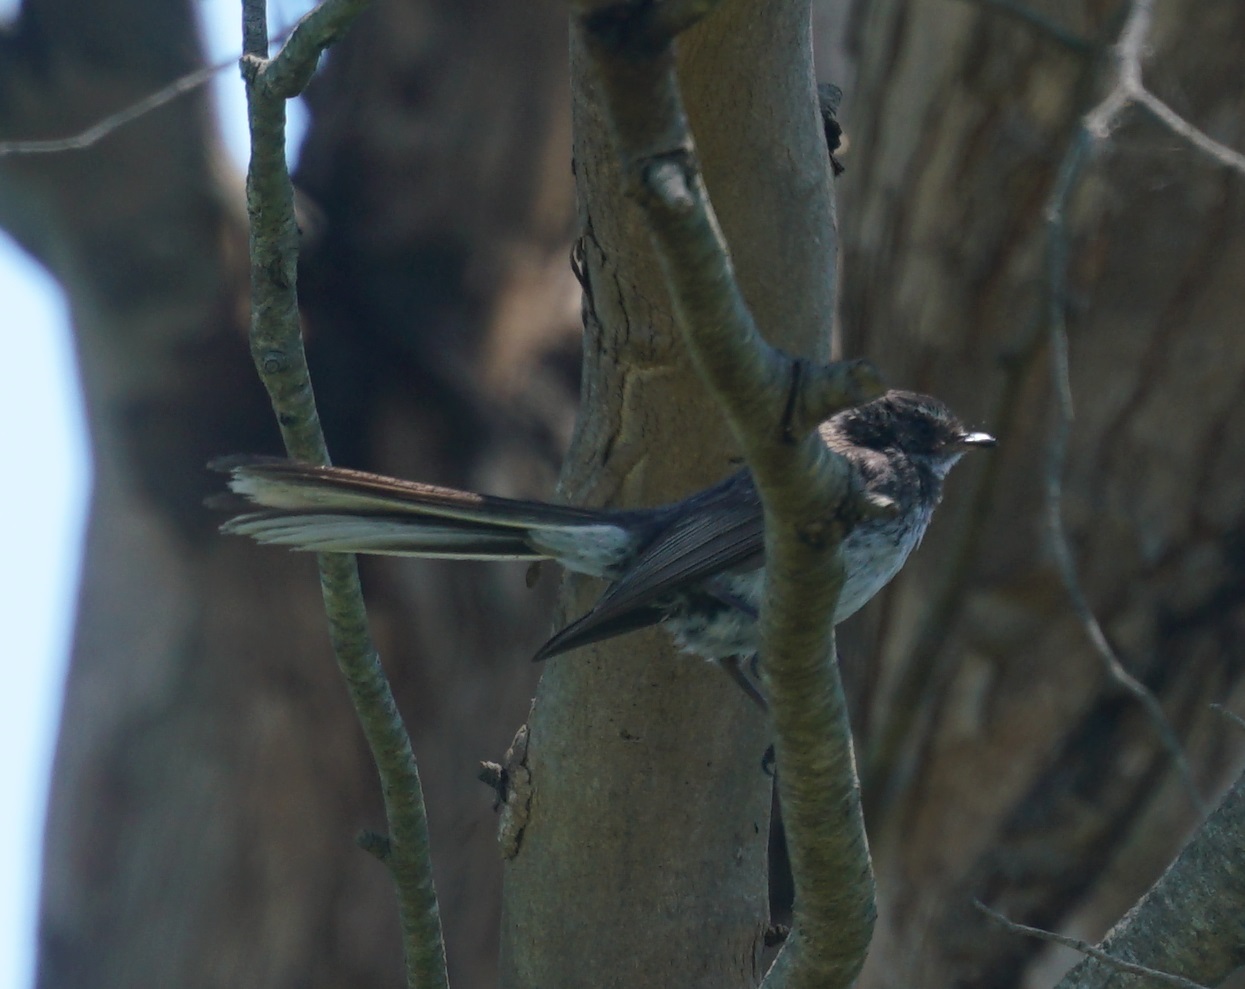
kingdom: Animalia
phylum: Chordata
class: Aves
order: Passeriformes
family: Rhipiduridae
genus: Rhipidura
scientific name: Rhipidura albiscapa
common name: Grey fantail
